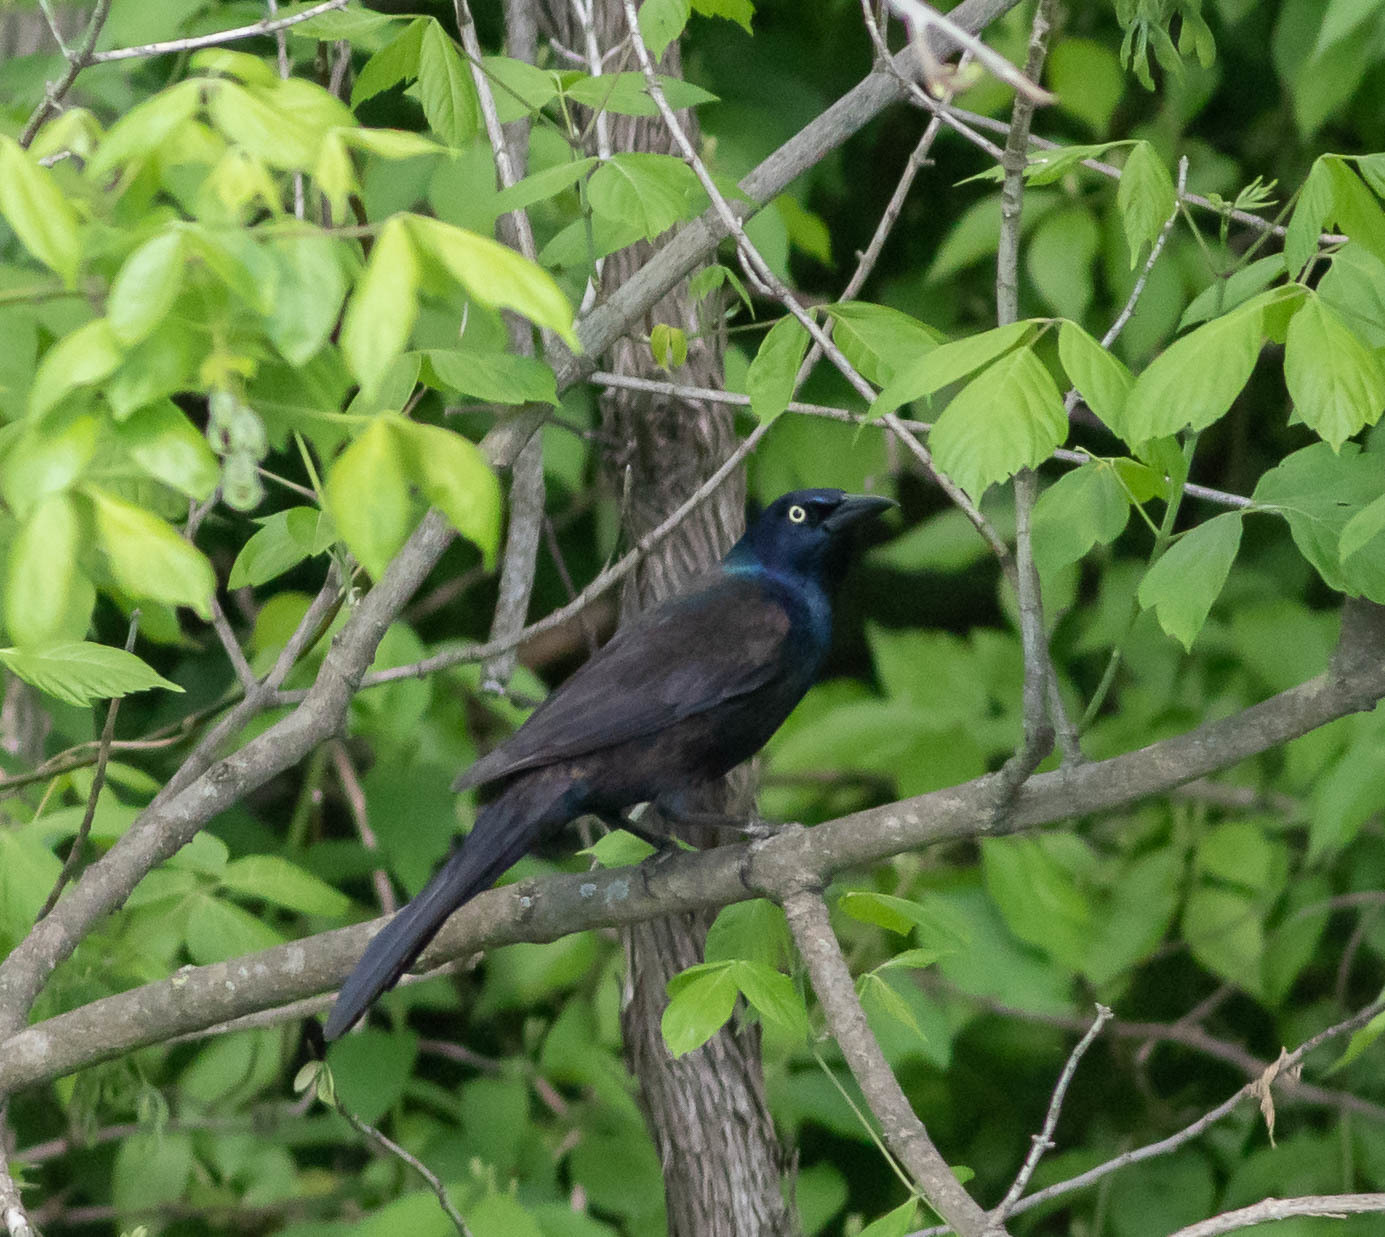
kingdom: Animalia
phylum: Chordata
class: Aves
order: Passeriformes
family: Icteridae
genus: Quiscalus
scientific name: Quiscalus quiscula
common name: Common grackle
